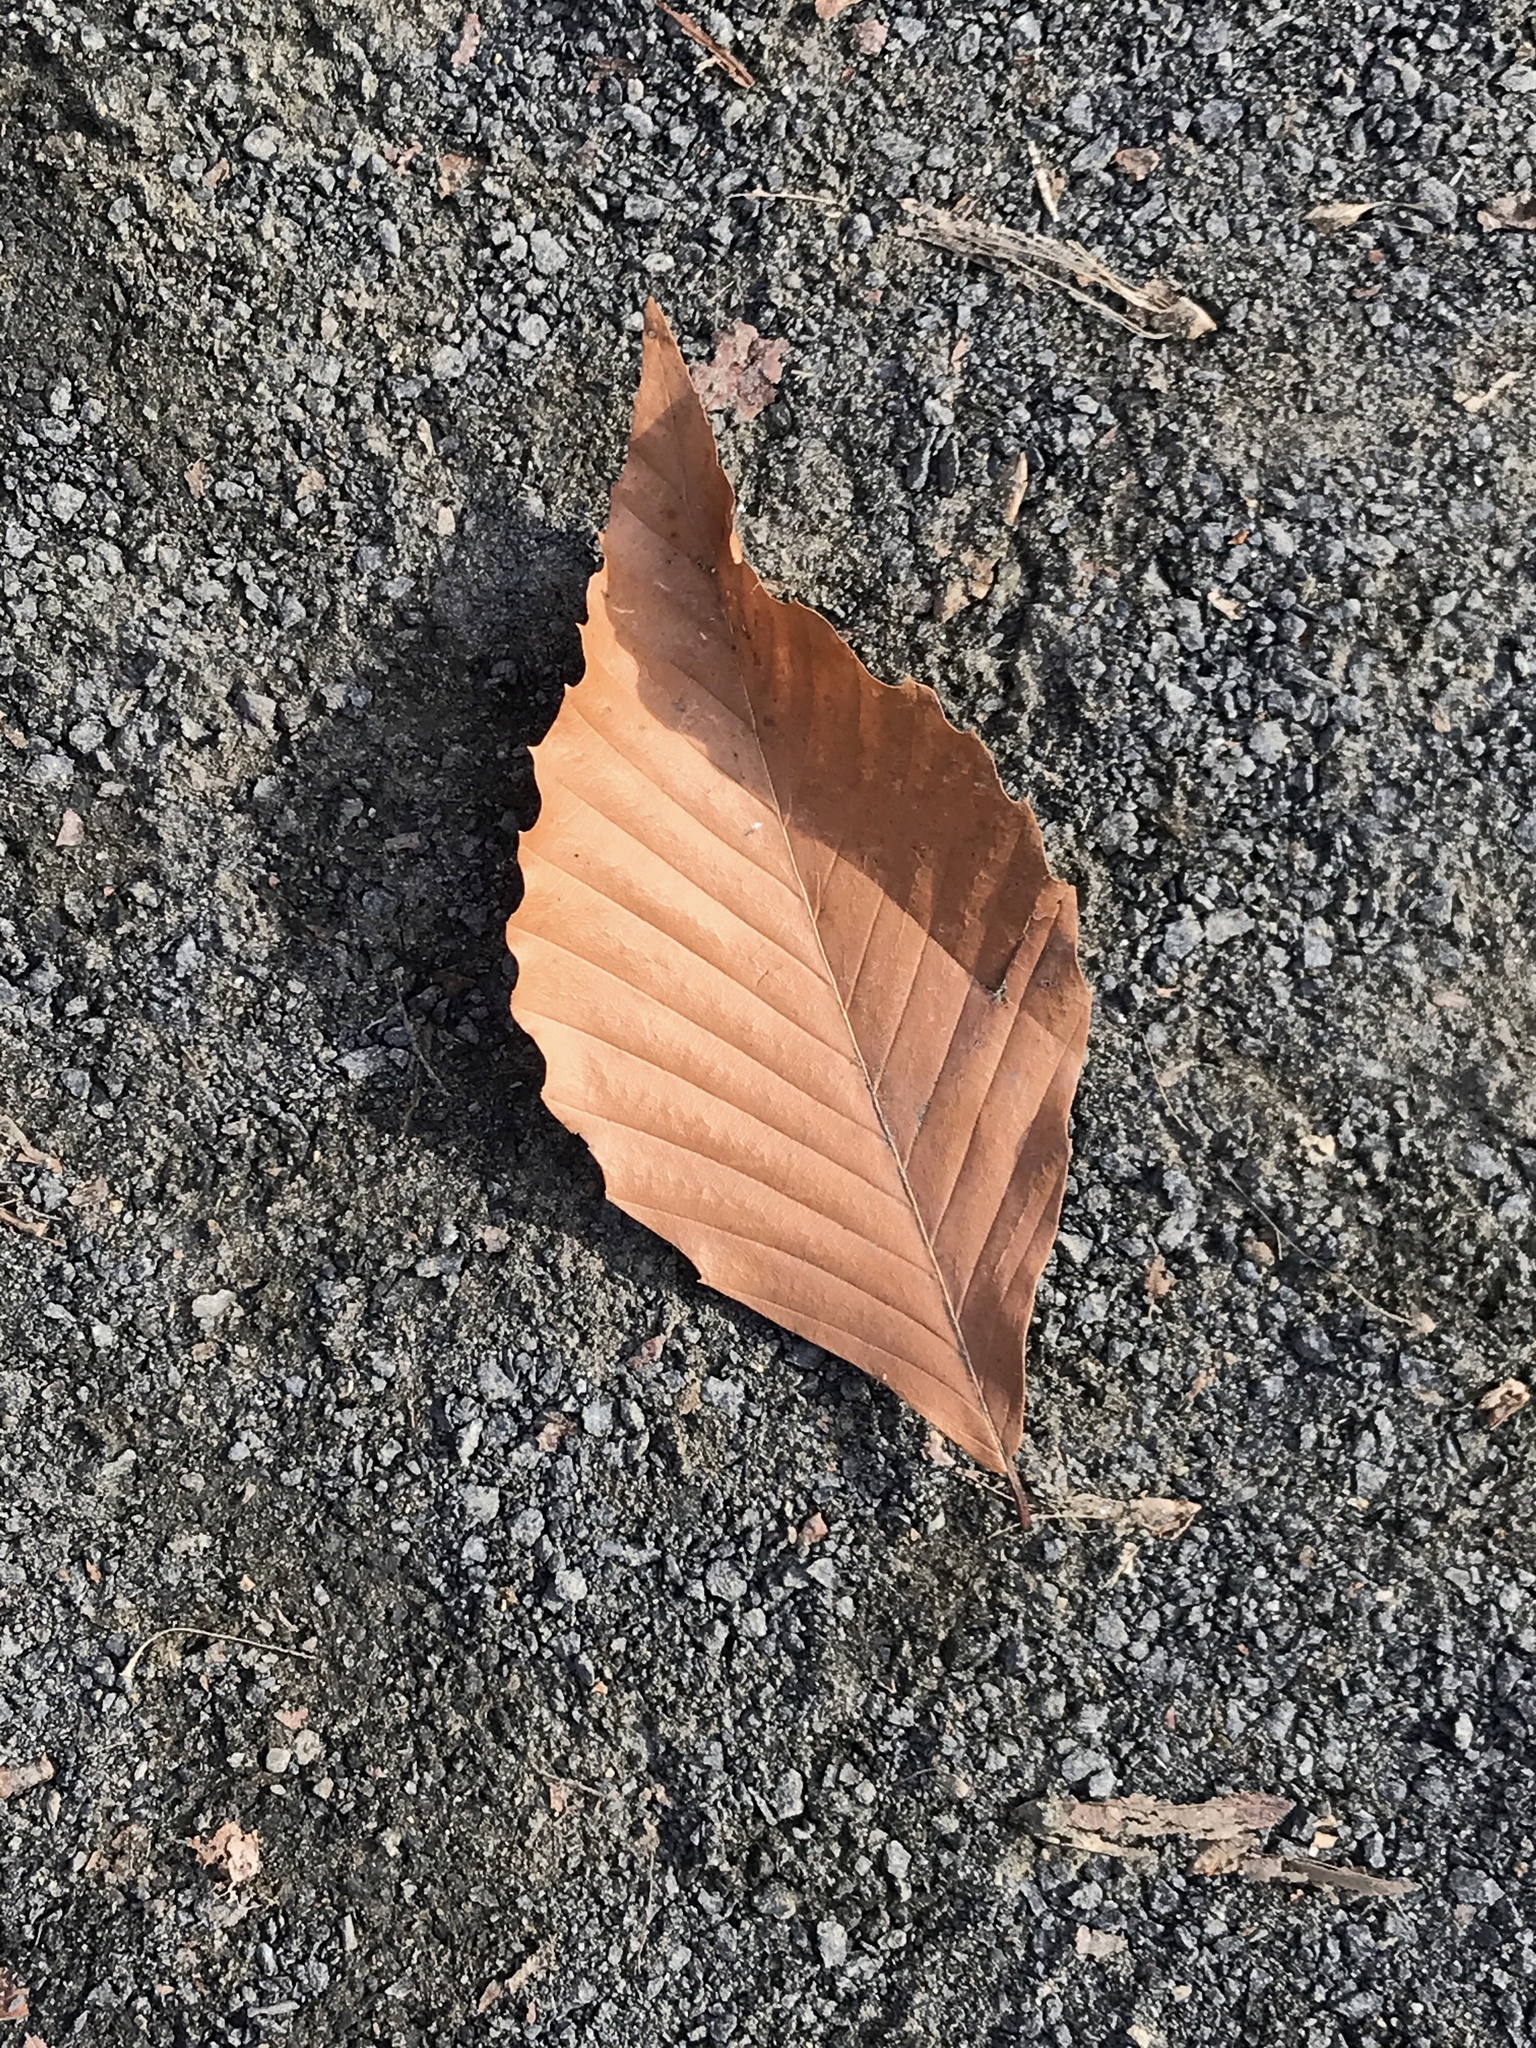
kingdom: Plantae
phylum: Tracheophyta
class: Magnoliopsida
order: Fagales
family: Fagaceae
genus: Fagus
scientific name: Fagus grandifolia
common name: American beech
